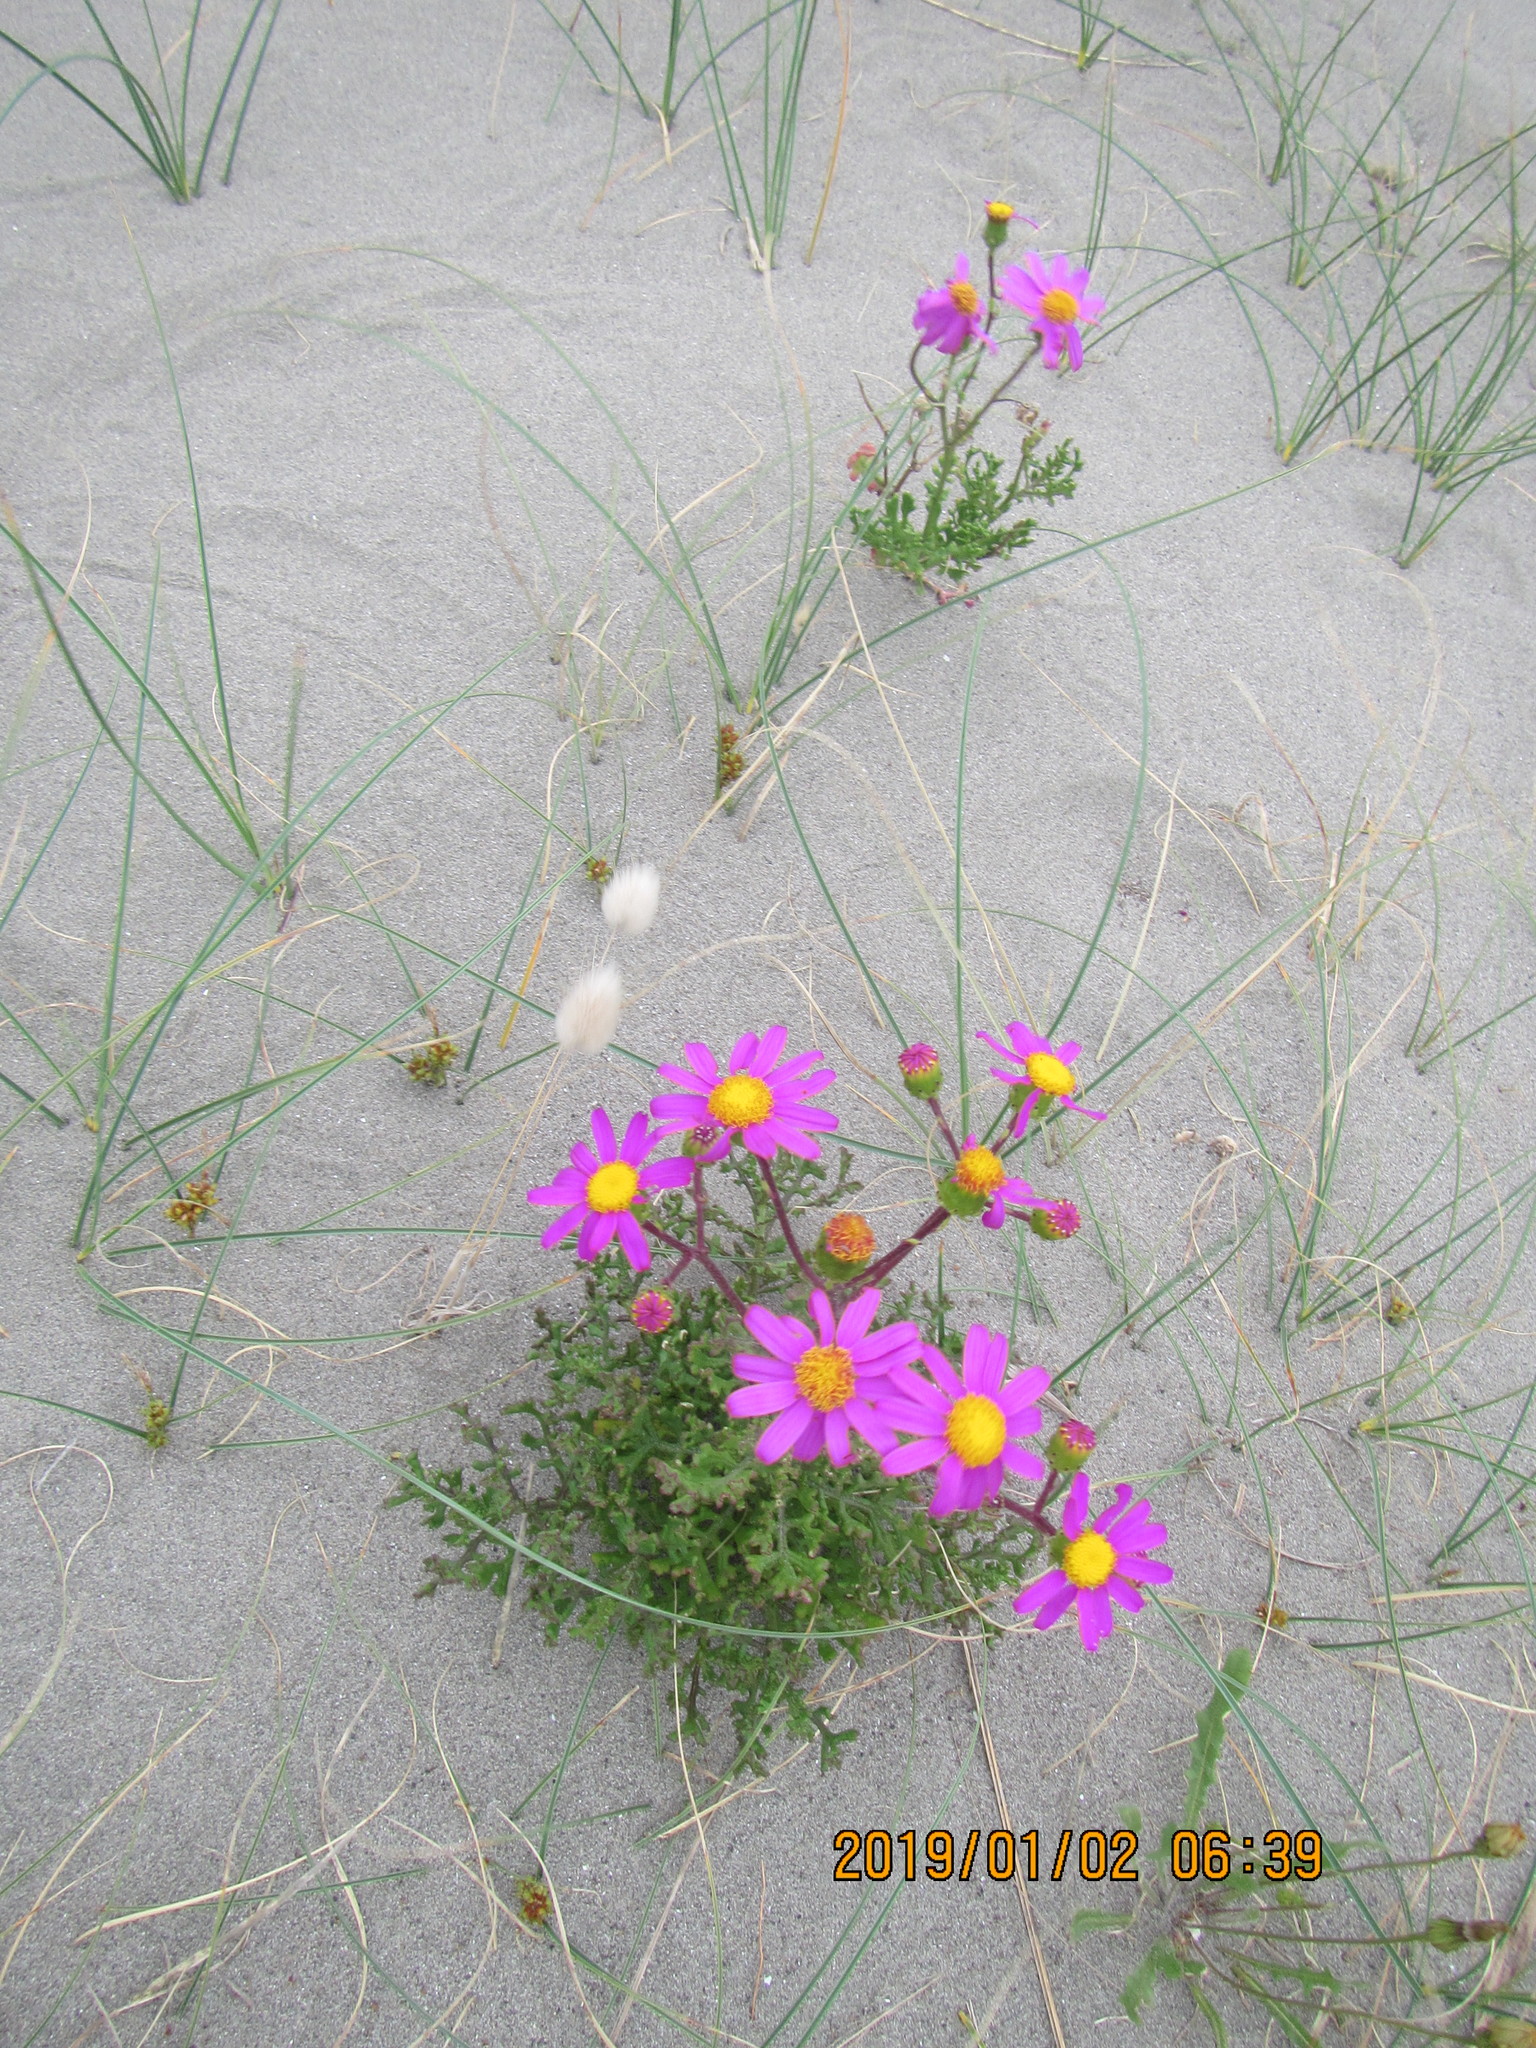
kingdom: Plantae
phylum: Tracheophyta
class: Magnoliopsida
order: Asterales
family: Asteraceae
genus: Senecio
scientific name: Senecio elegans
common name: Purple groundsel
